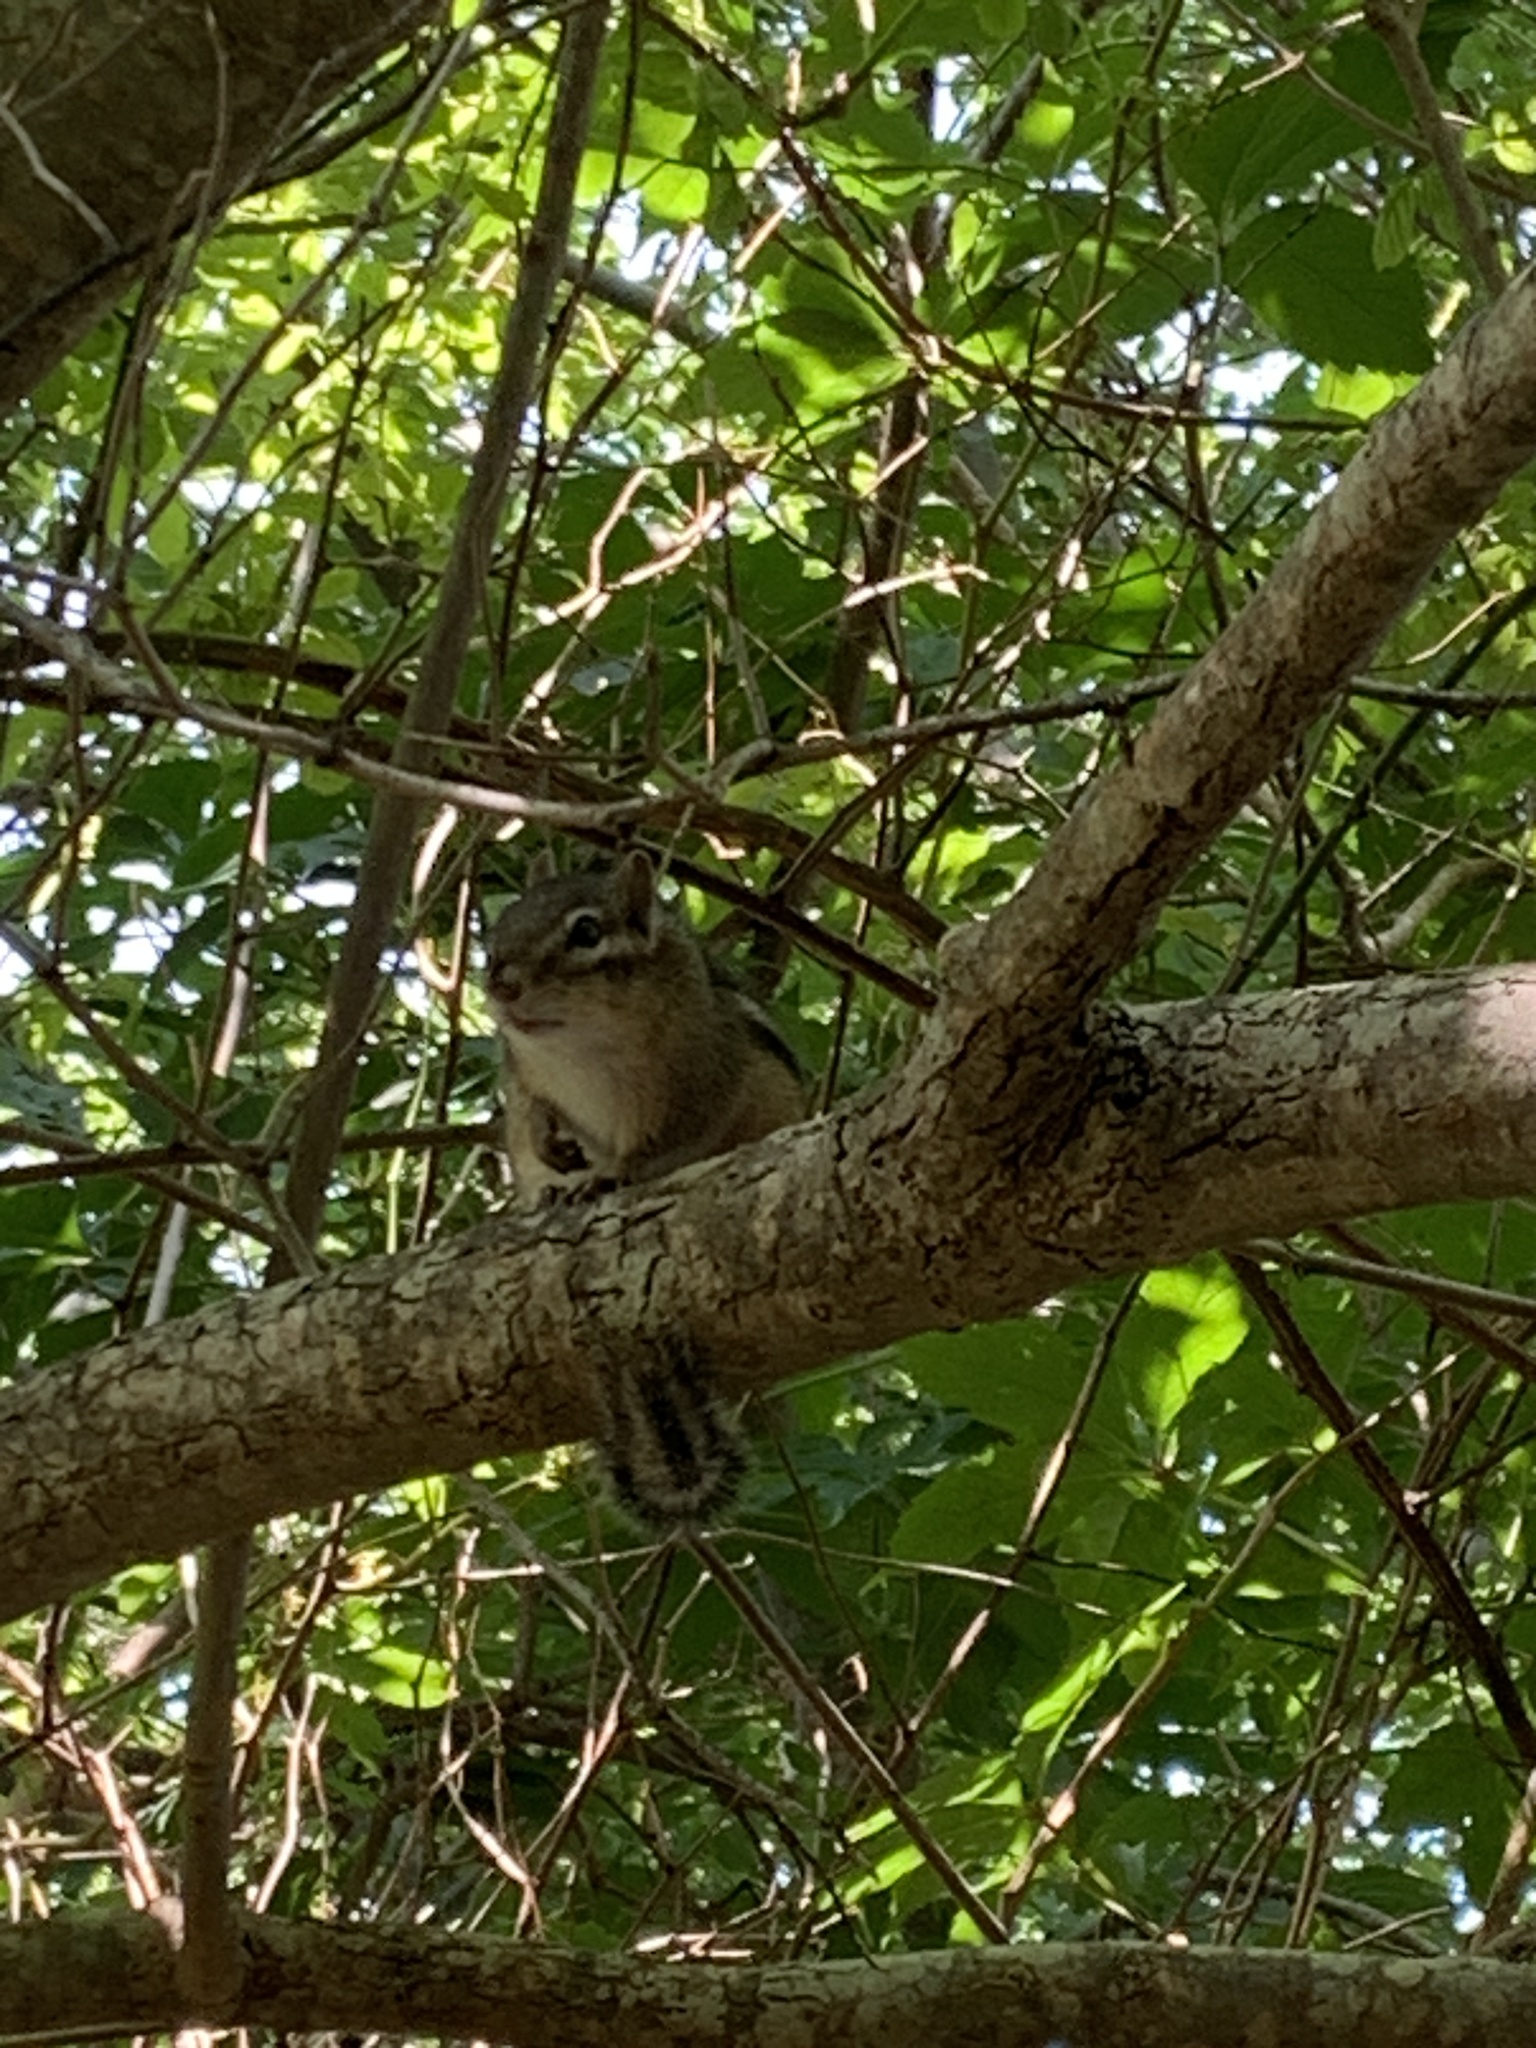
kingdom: Animalia
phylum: Chordata
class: Mammalia
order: Rodentia
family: Sciuridae
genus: Tamias
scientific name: Tamias striatus
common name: Eastern chipmunk
